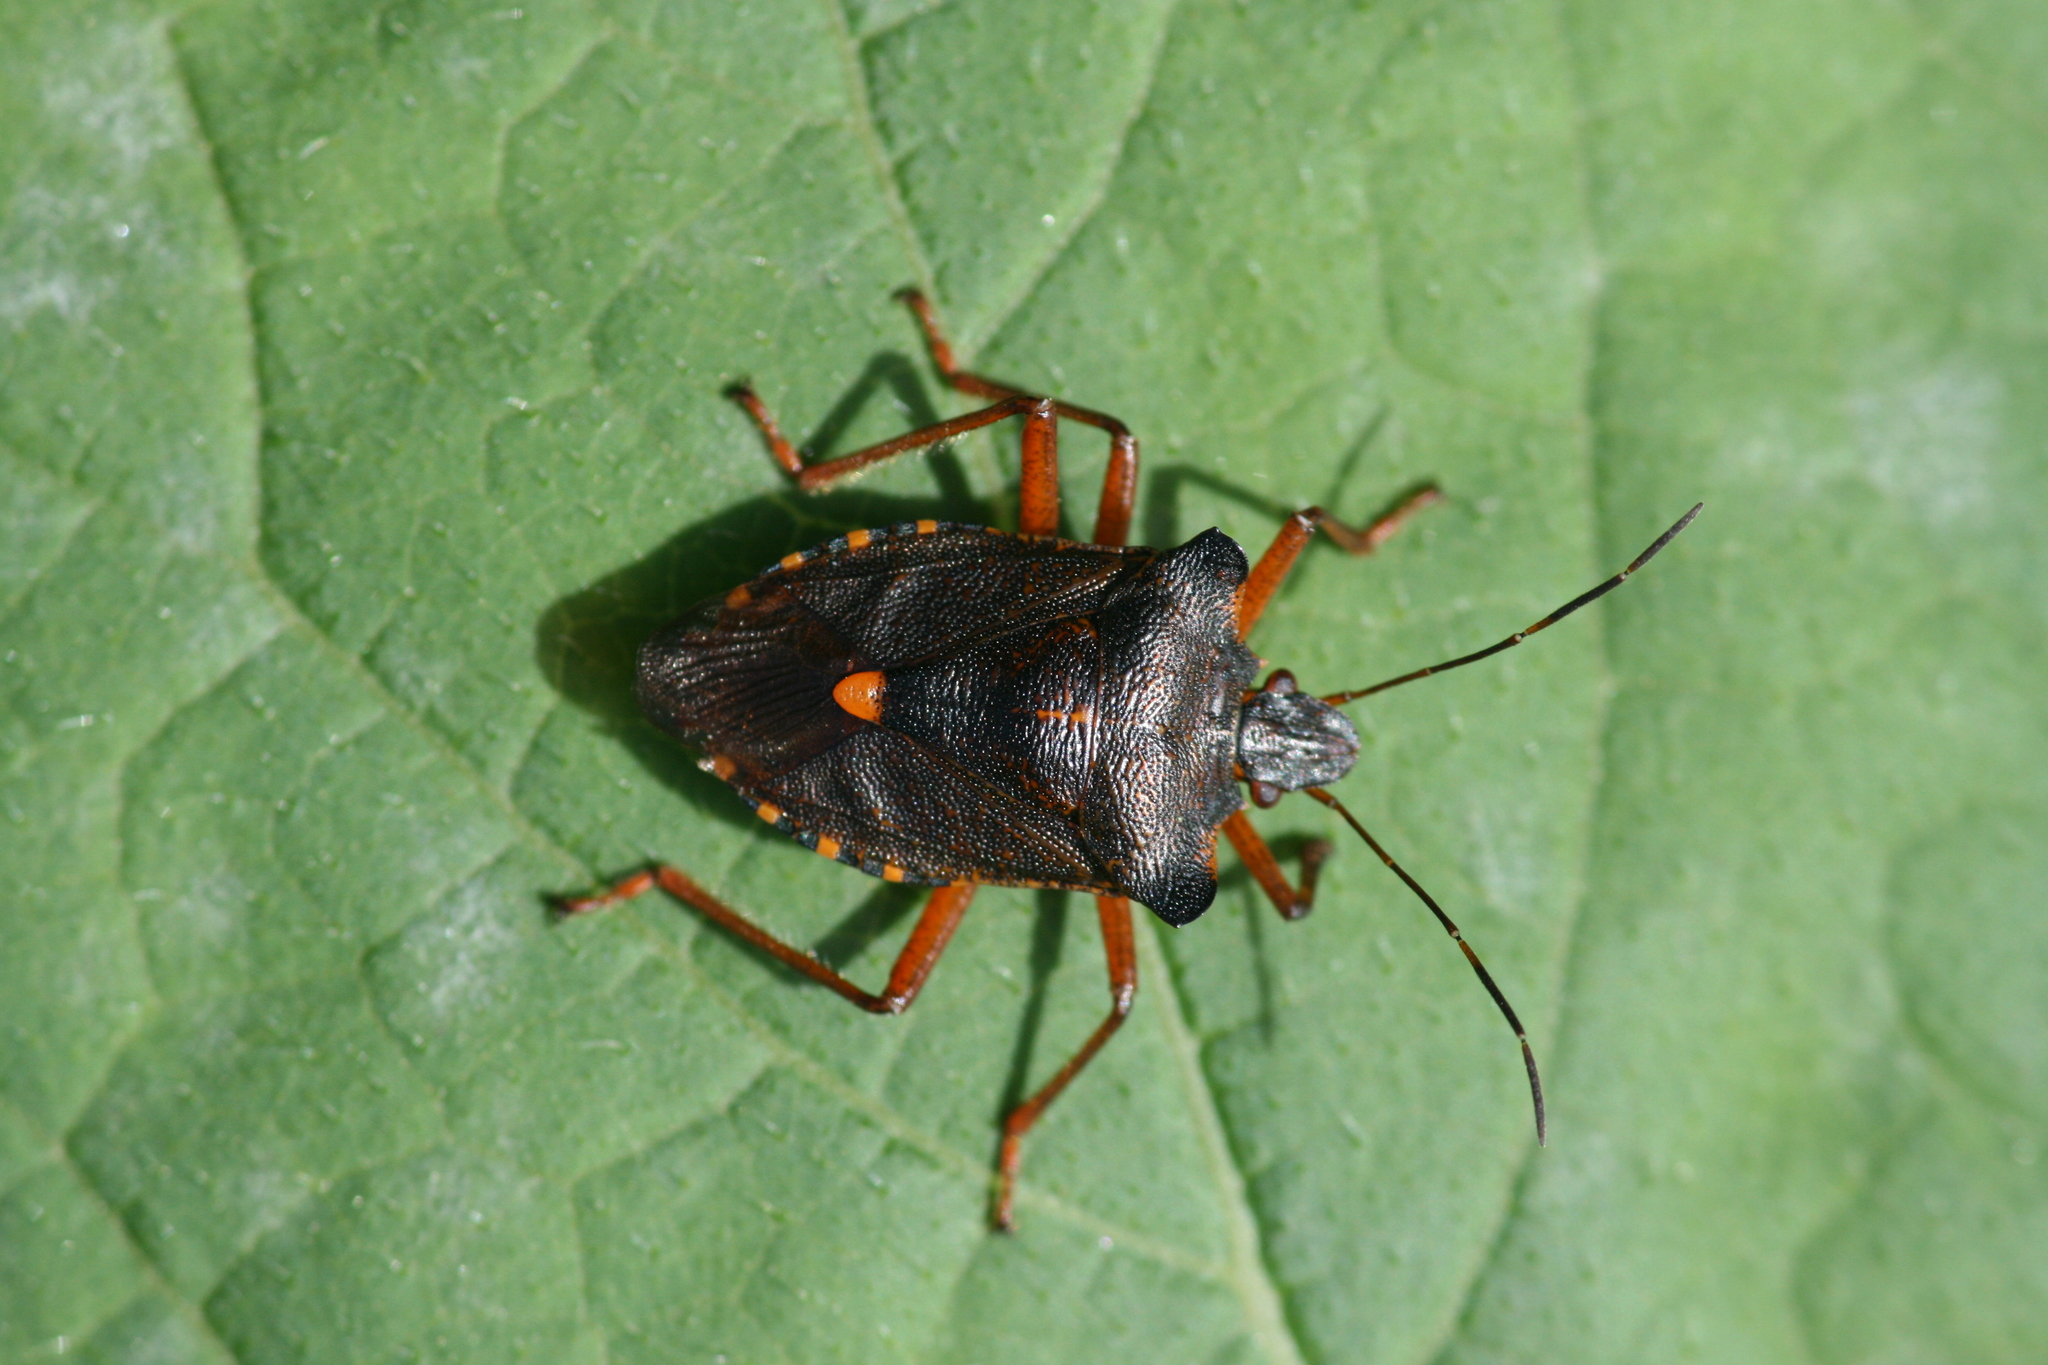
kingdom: Animalia
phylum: Arthropoda
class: Insecta
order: Hemiptera
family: Pentatomidae
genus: Pentatoma
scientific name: Pentatoma rufipes
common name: Forest bug
